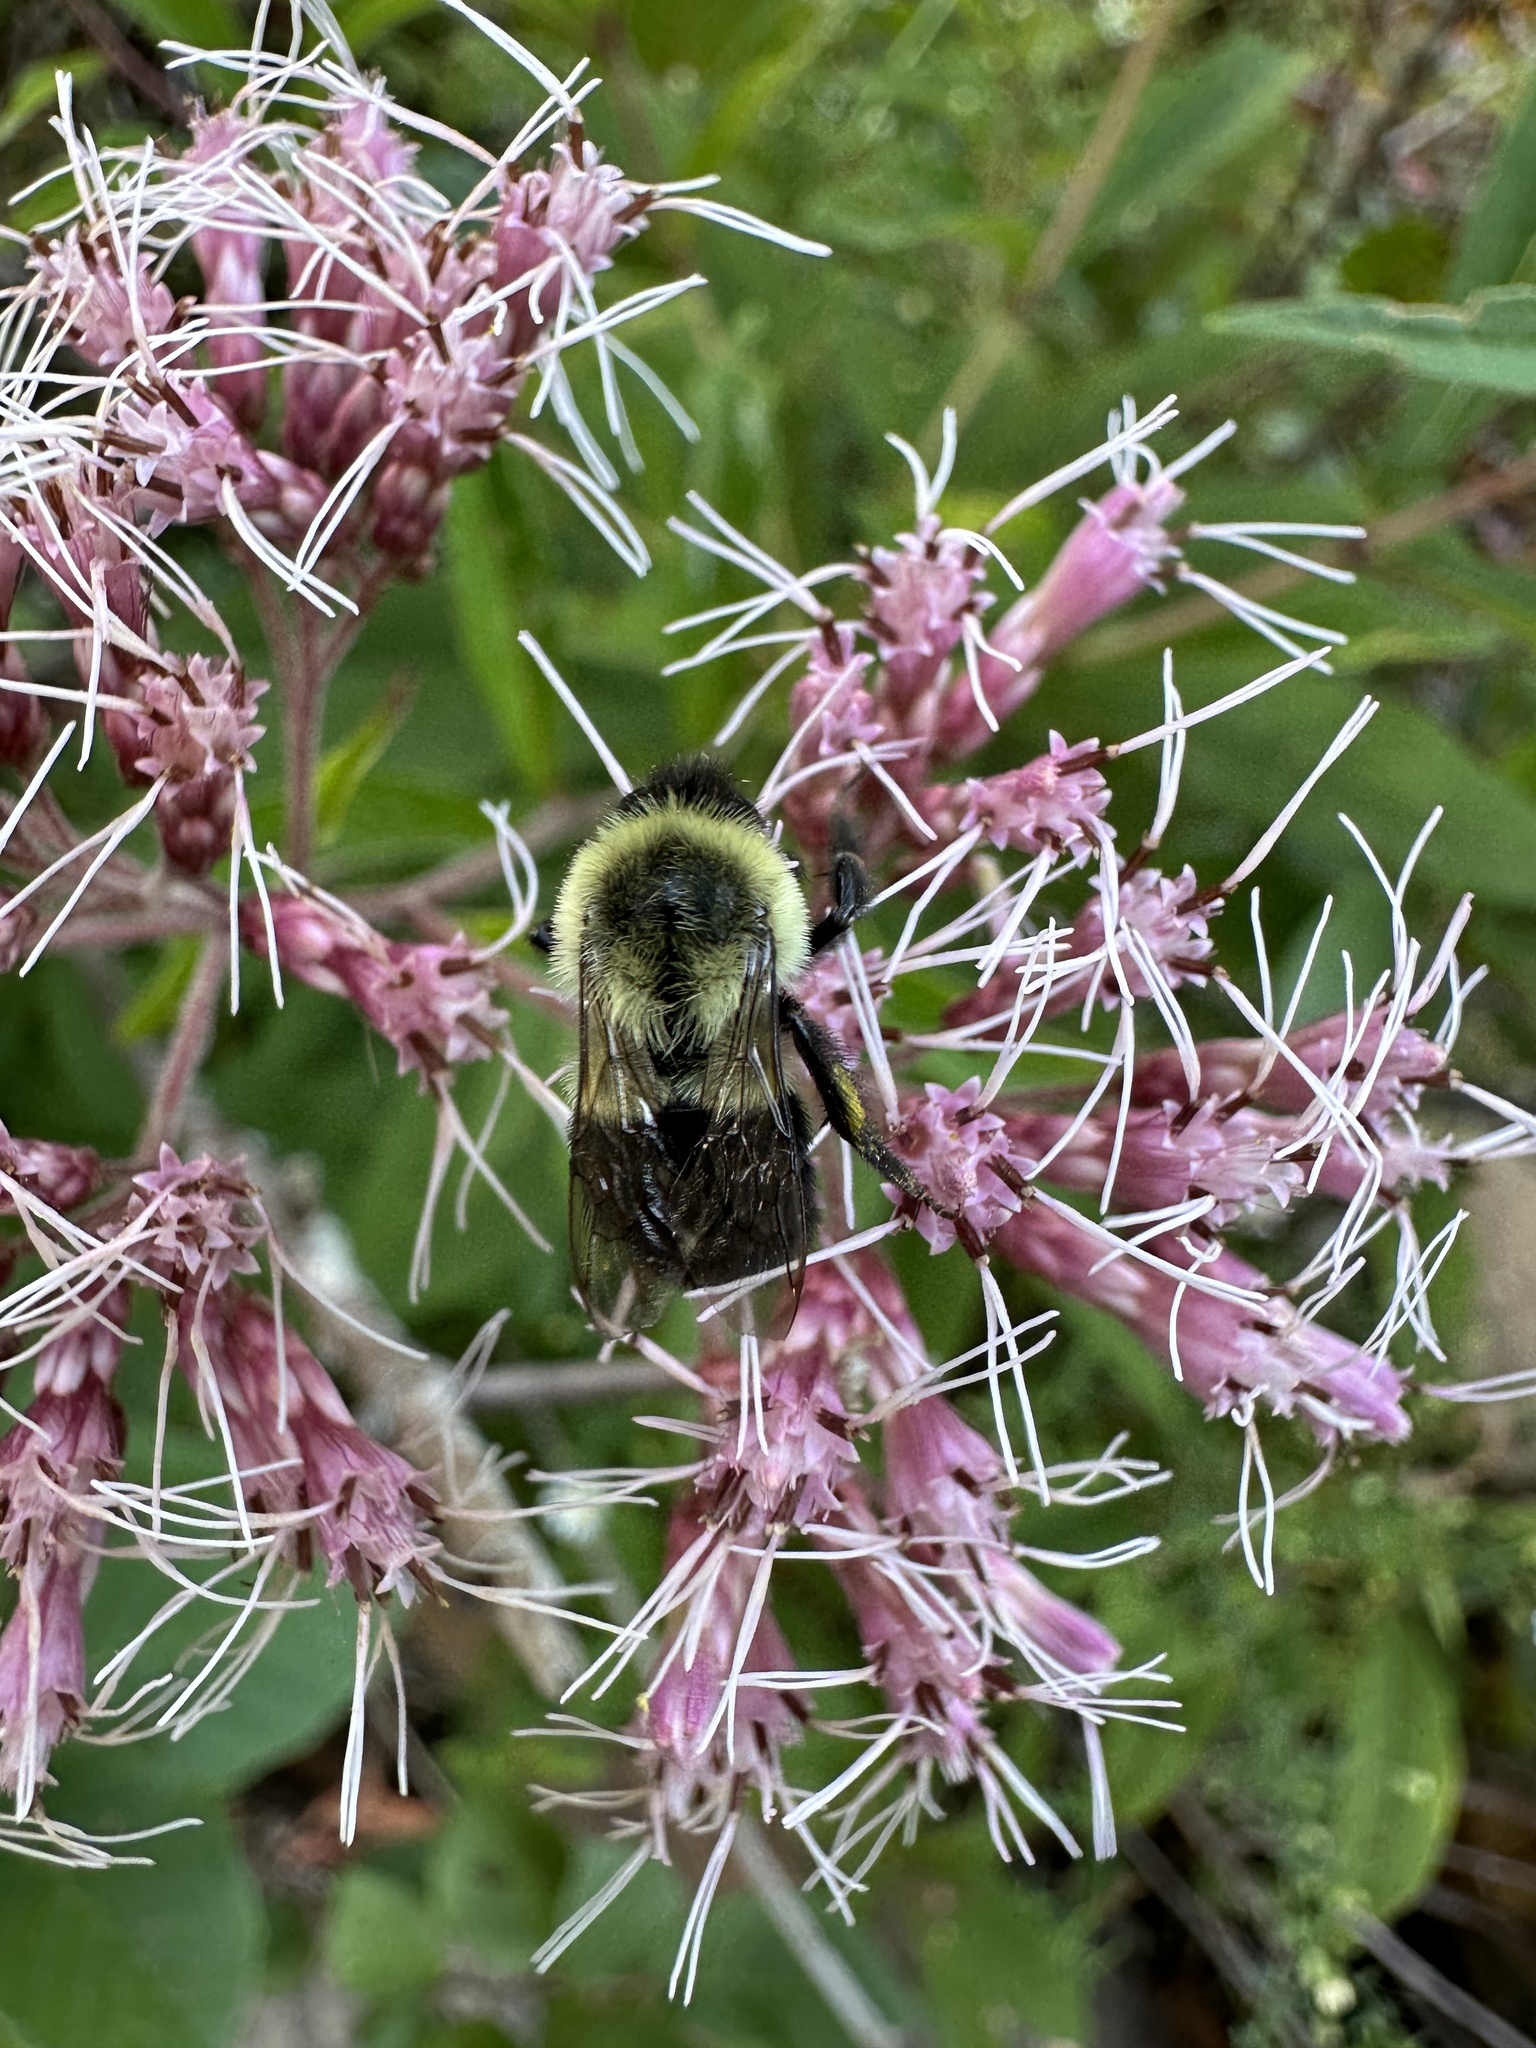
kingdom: Animalia
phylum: Arthropoda
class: Insecta
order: Hymenoptera
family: Apidae
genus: Bombus
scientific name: Bombus impatiens
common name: Common eastern bumble bee
